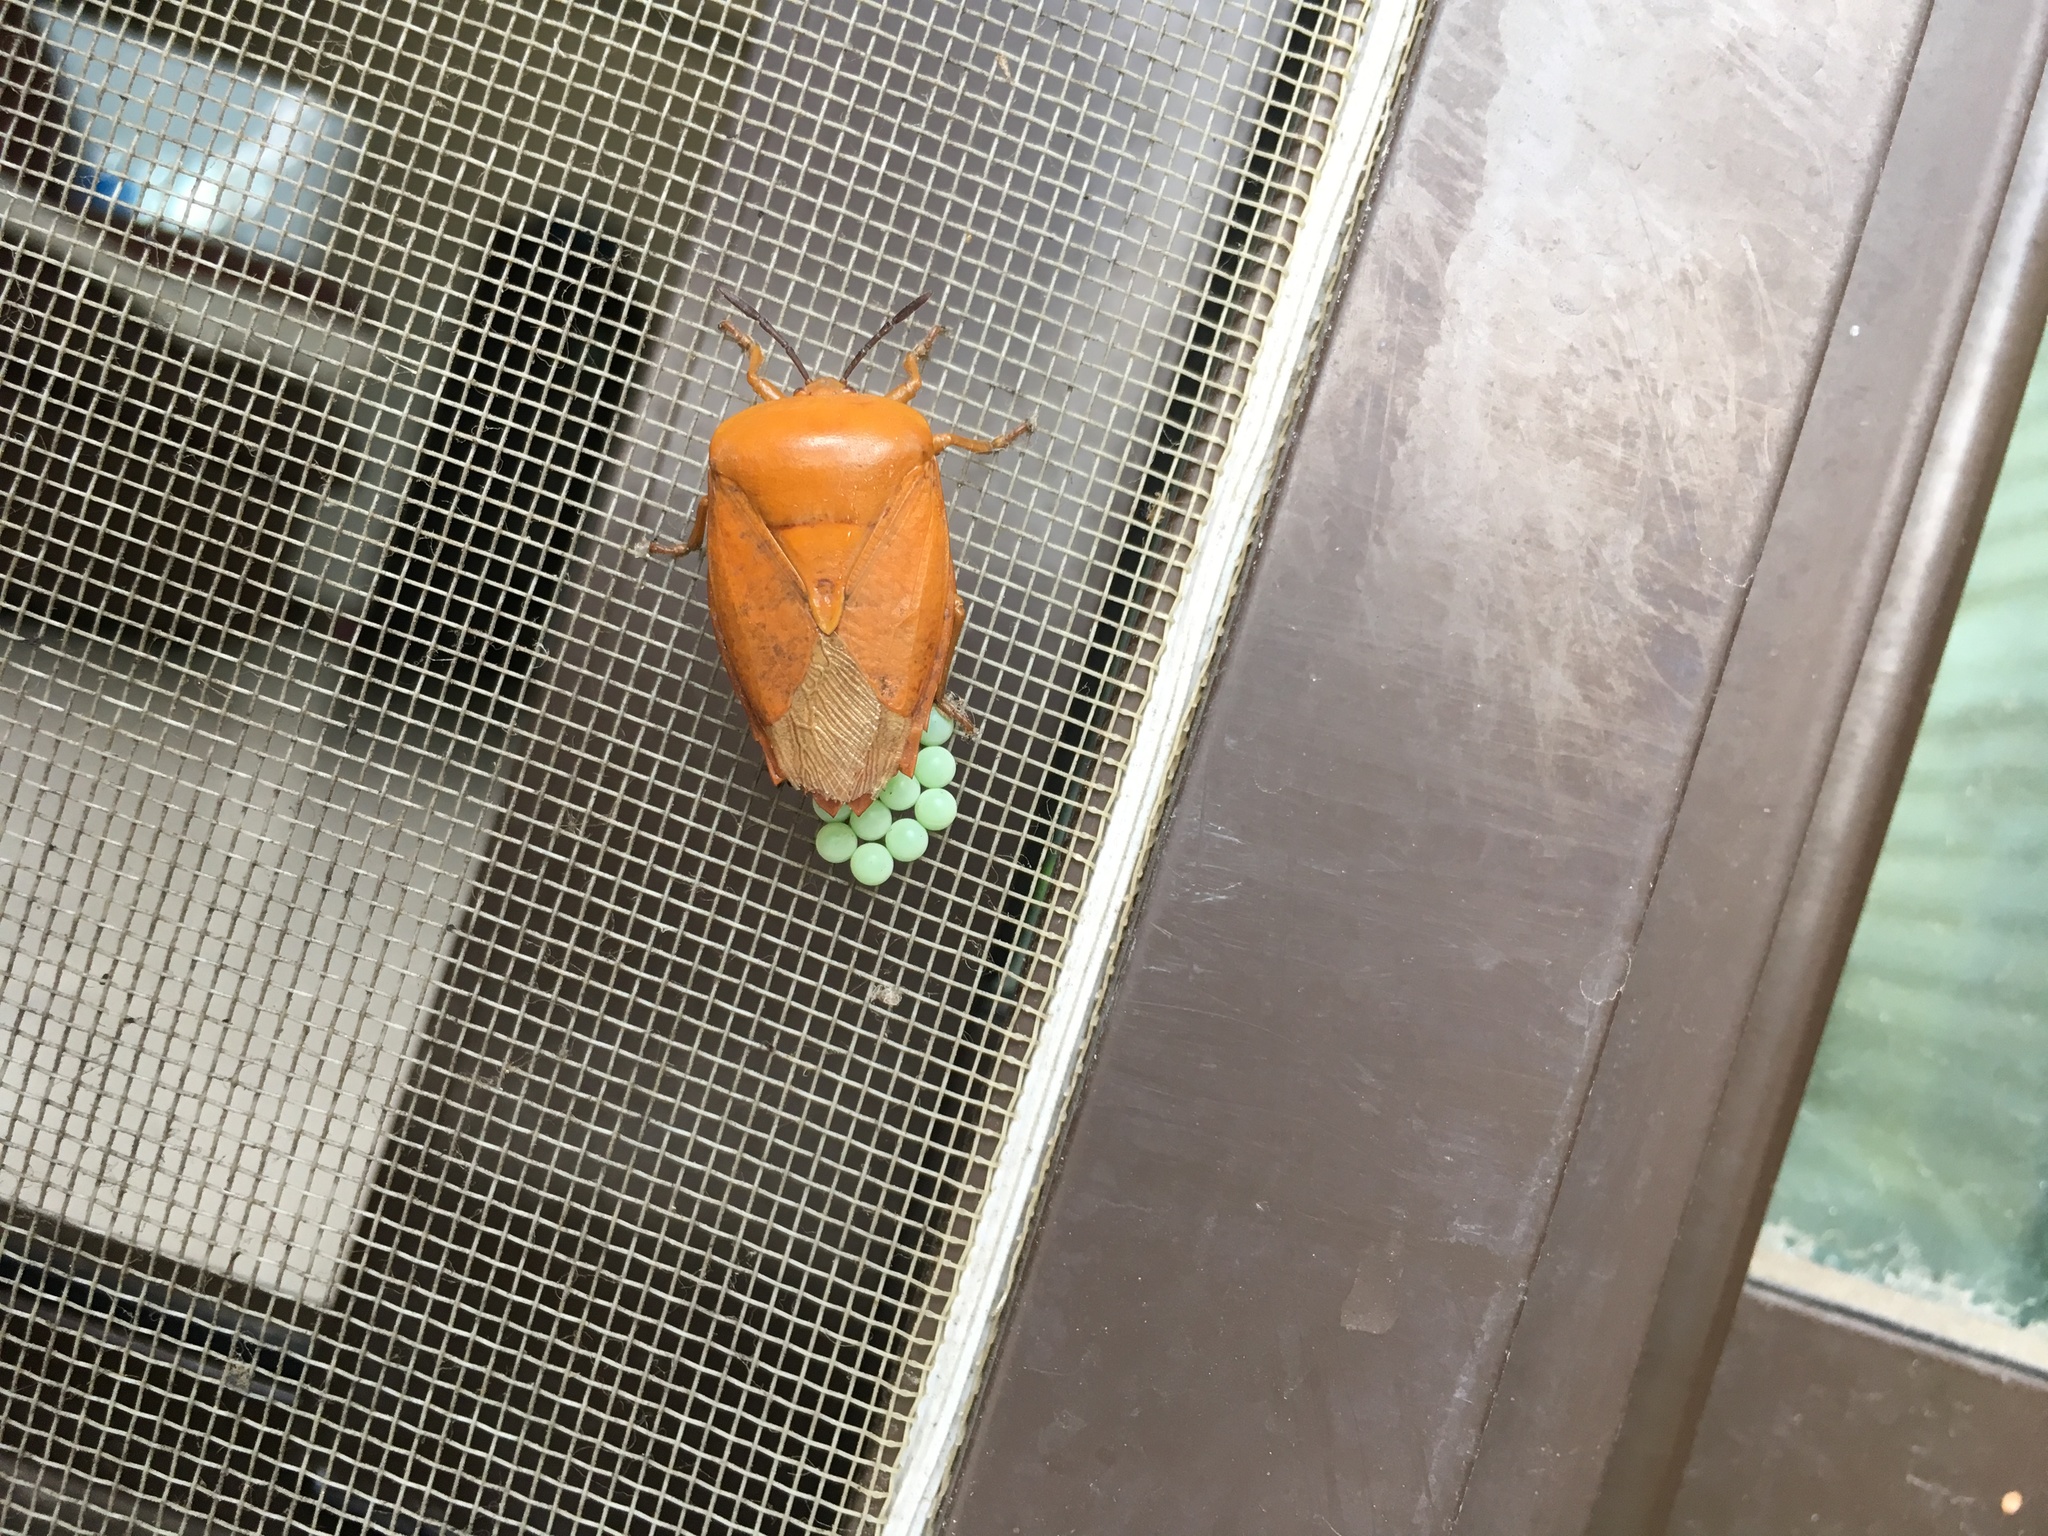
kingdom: Animalia
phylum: Arthropoda
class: Insecta
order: Hemiptera
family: Tessaratomidae
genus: Tessaratoma
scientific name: Tessaratoma papillosa
